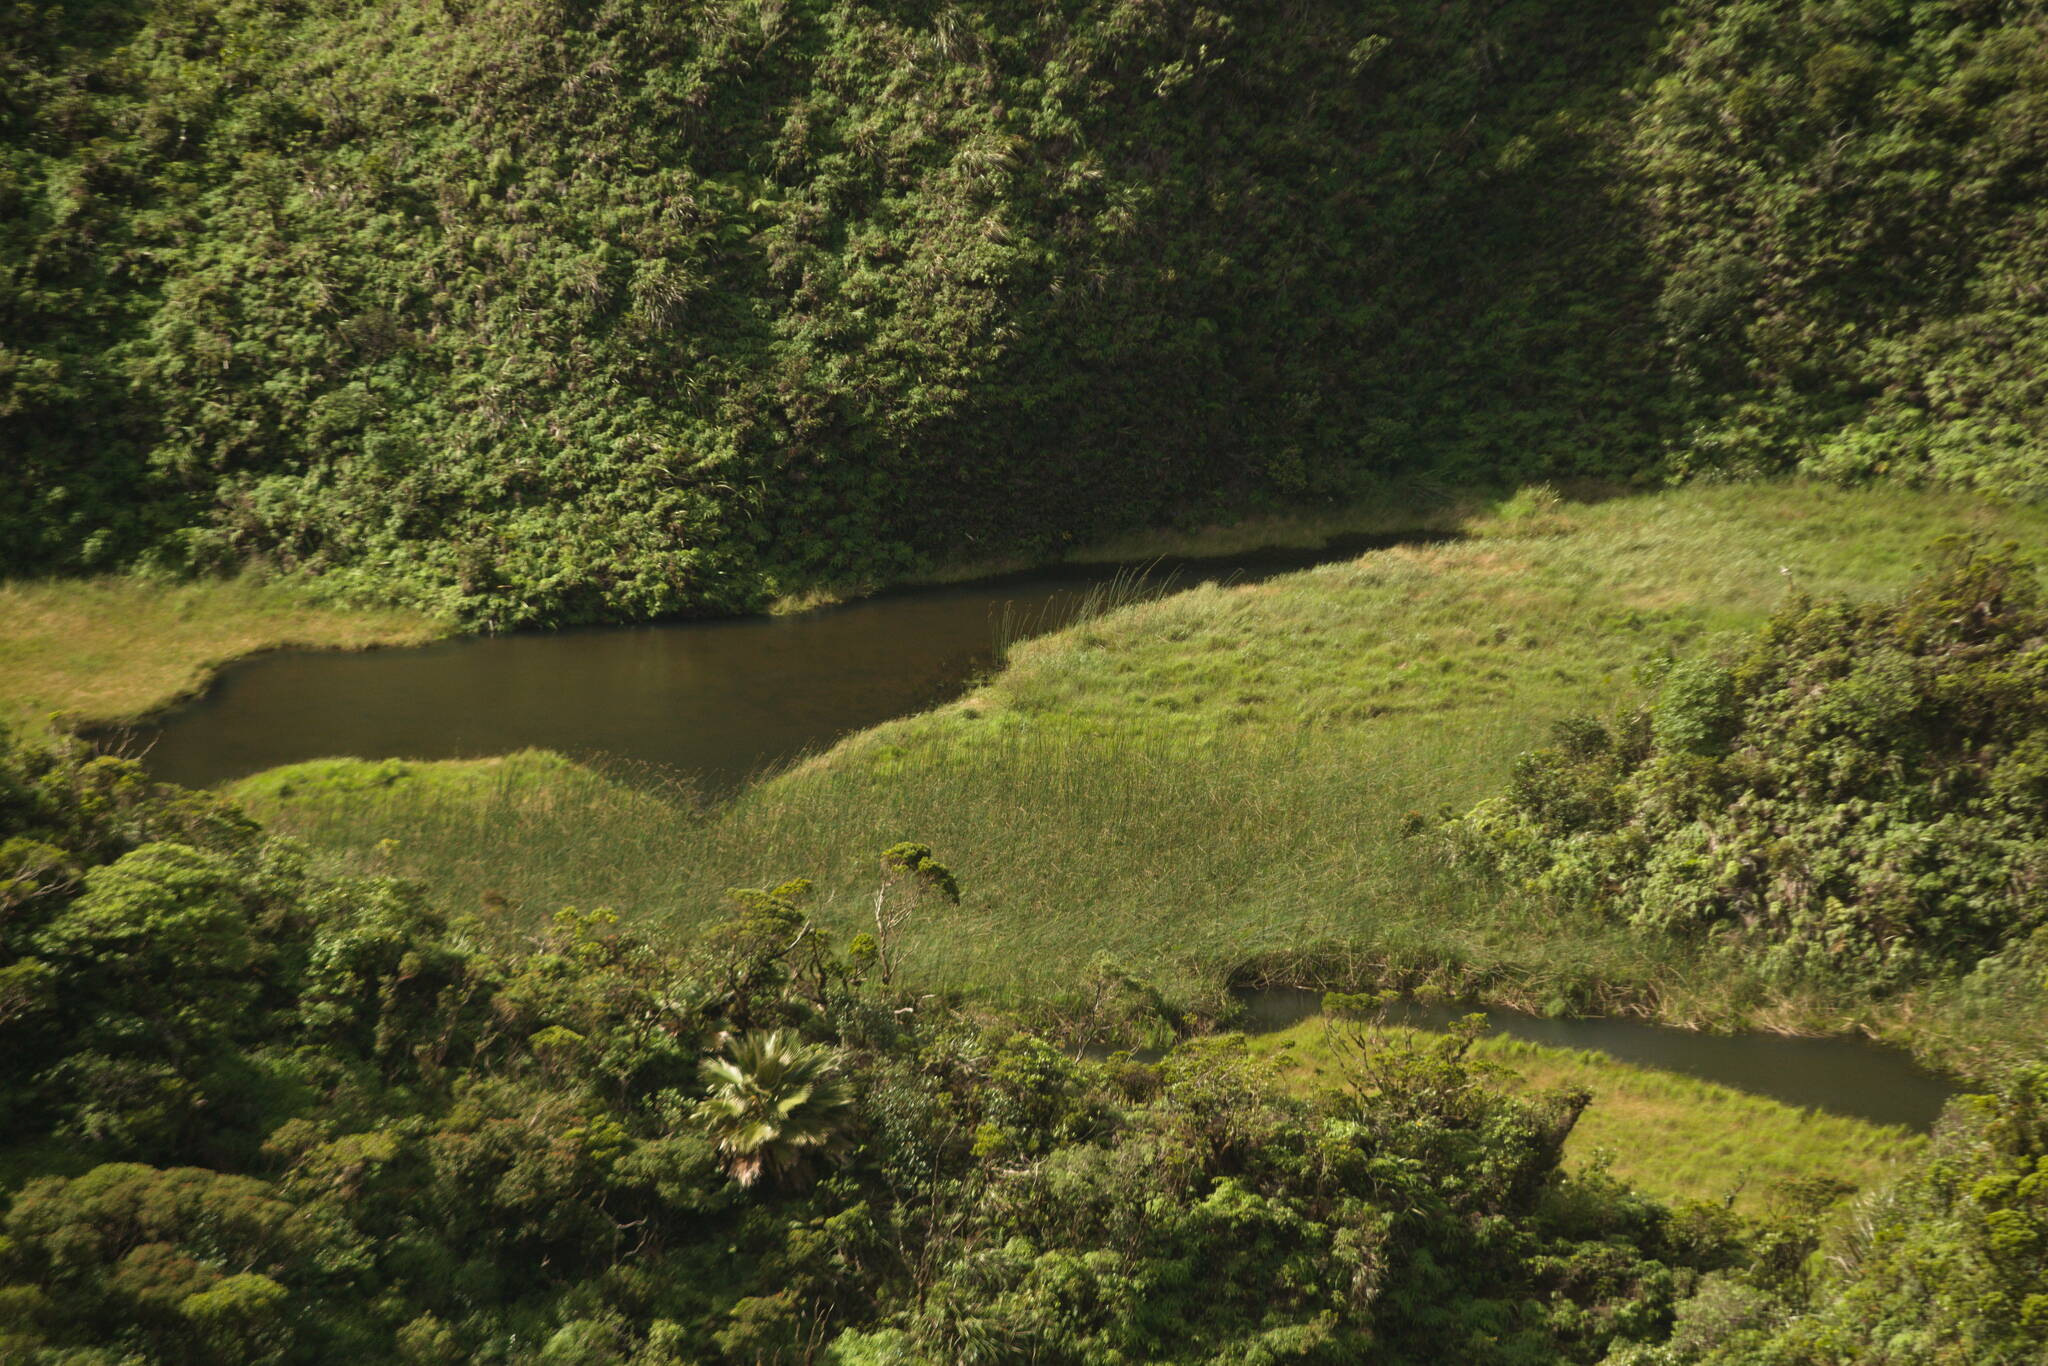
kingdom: Plantae
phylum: Tracheophyta
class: Liliopsida
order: Poales
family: Cyperaceae
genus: Schoenoplectus
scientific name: Schoenoplectus californicus
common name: California bulrush
